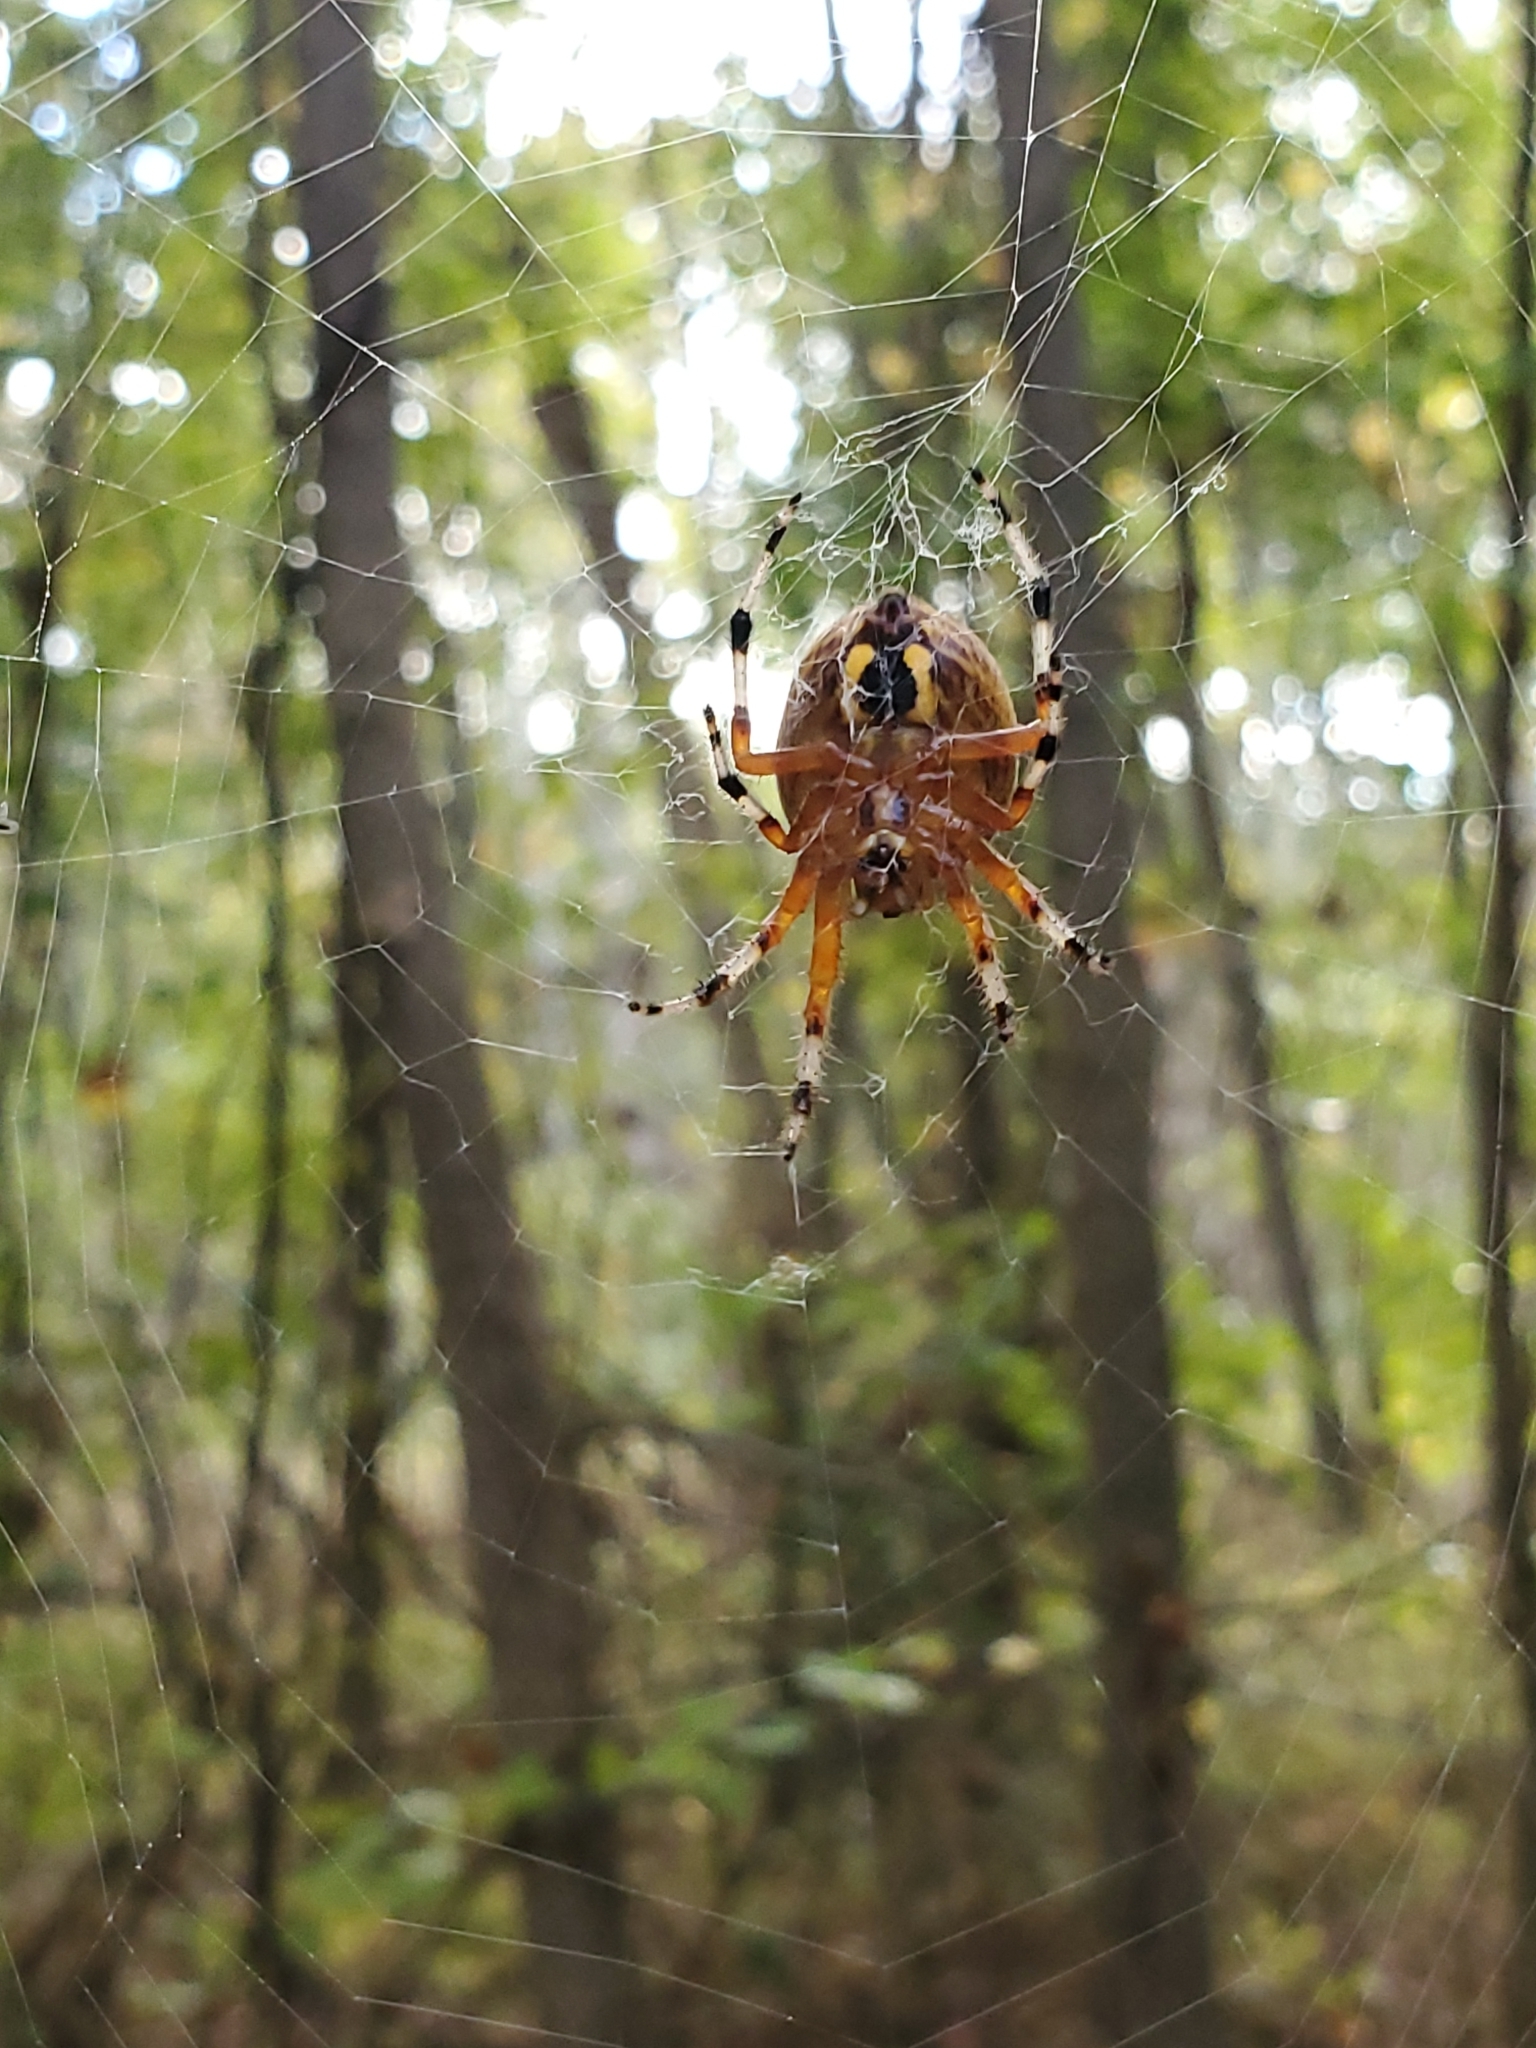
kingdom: Animalia
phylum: Arthropoda
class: Arachnida
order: Araneae
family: Araneidae
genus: Araneus
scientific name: Araneus marmoreus
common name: Marbled orbweaver
